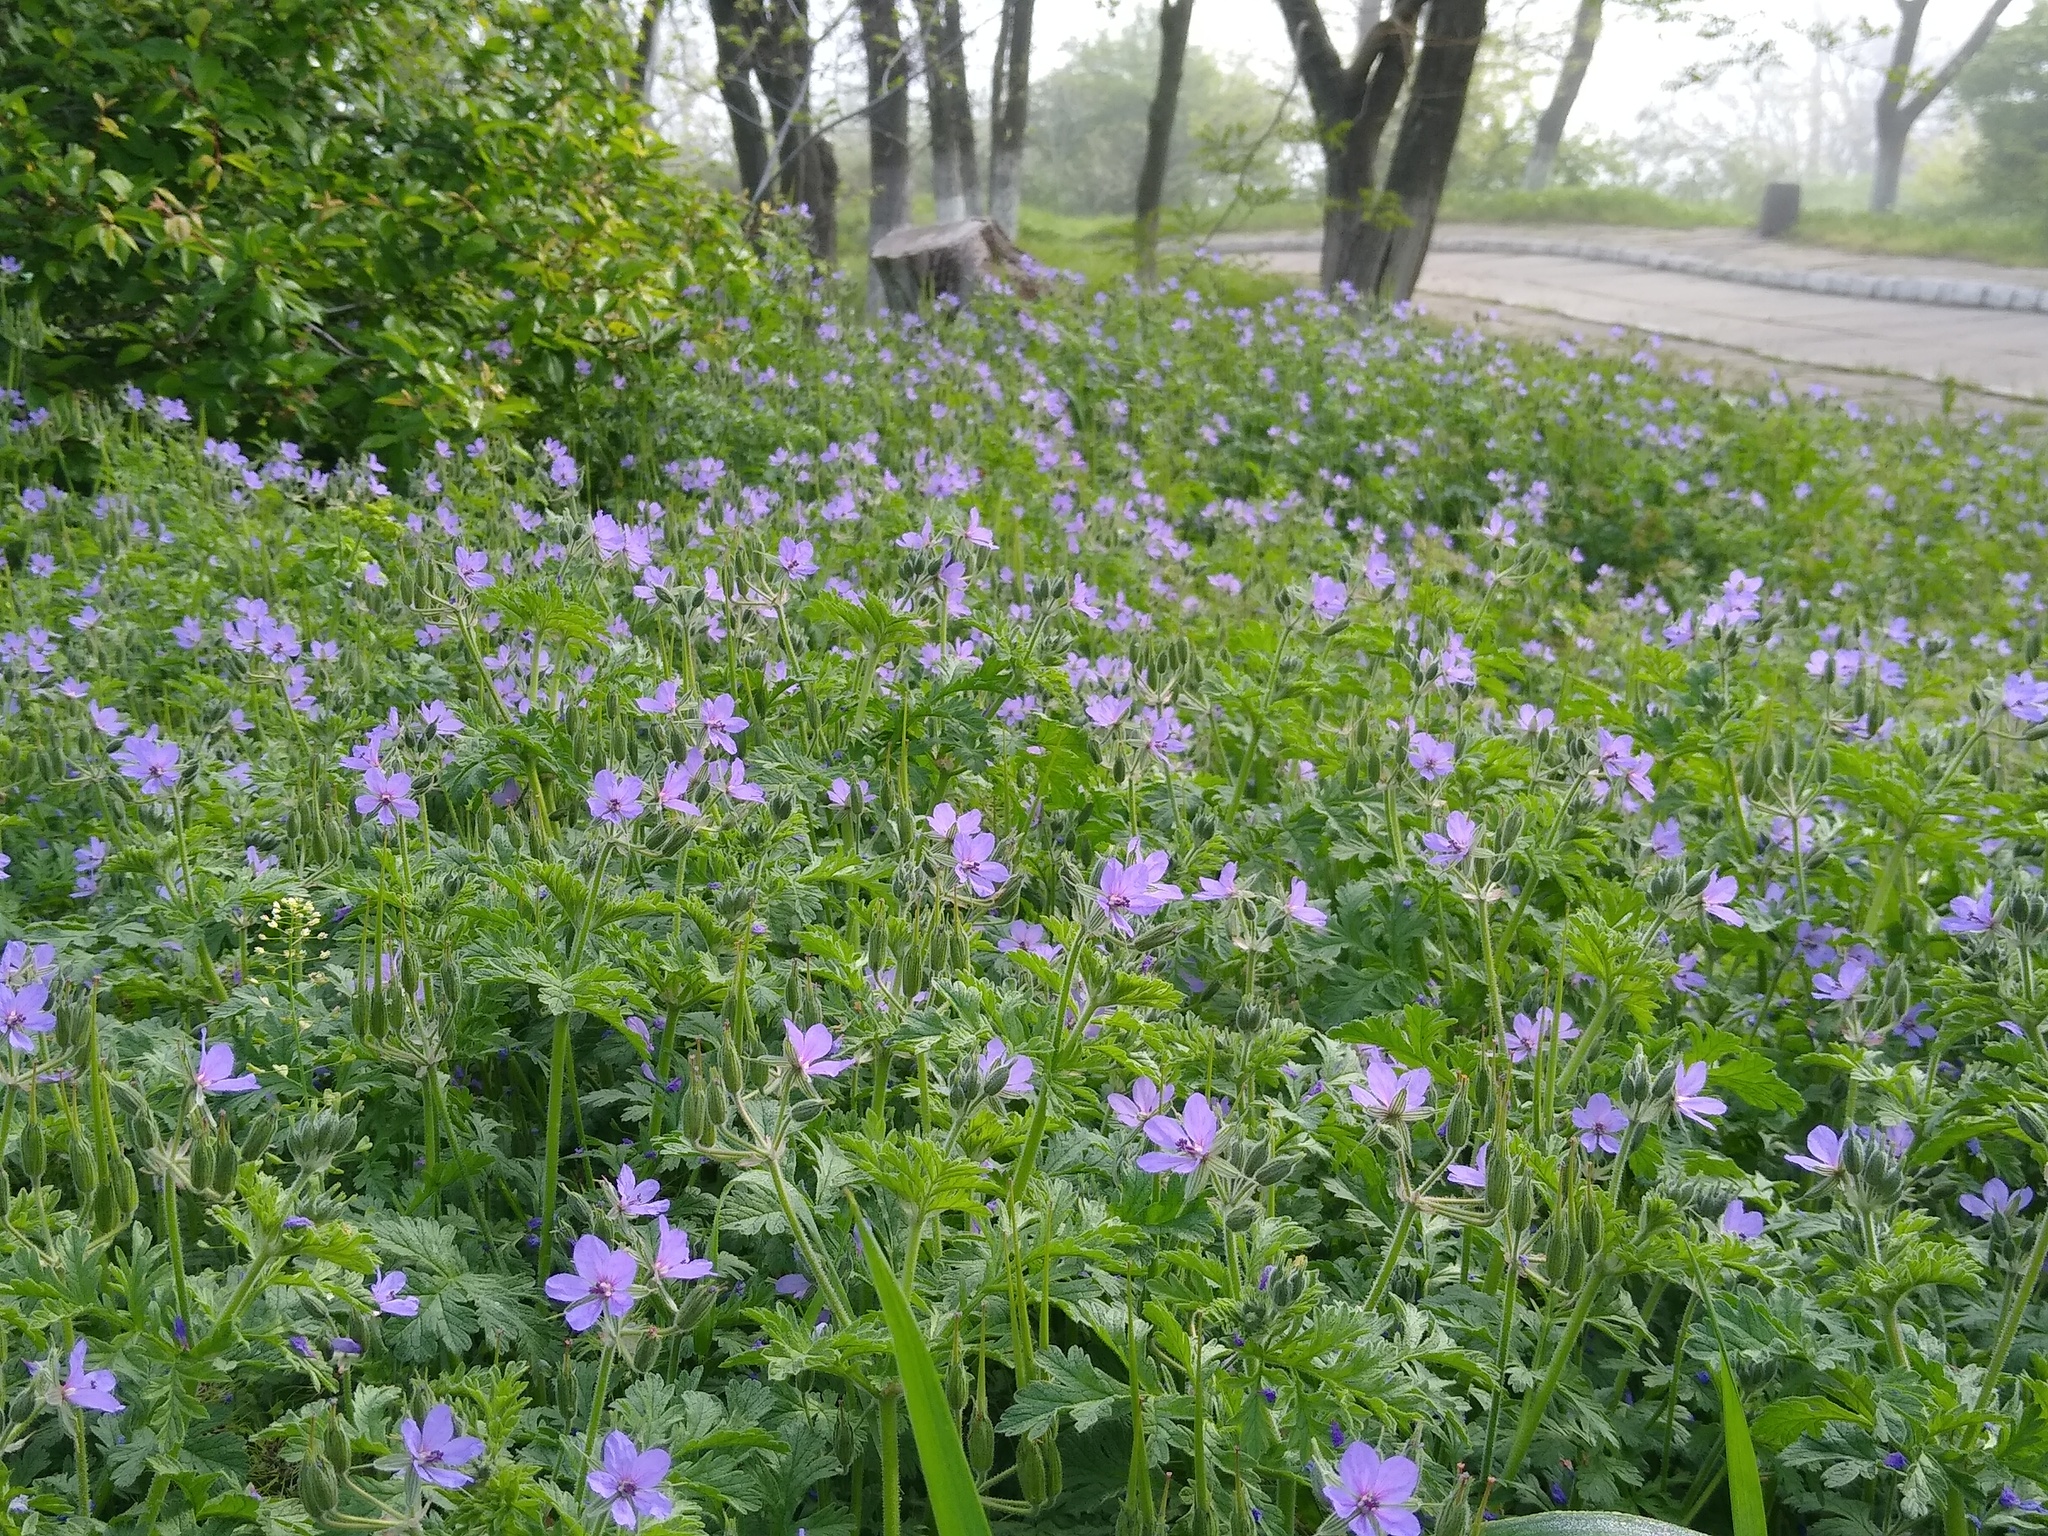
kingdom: Plantae
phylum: Tracheophyta
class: Magnoliopsida
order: Geraniales
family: Geraniaceae
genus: Erodium
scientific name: Erodium ciconium
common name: Common stork's bill
